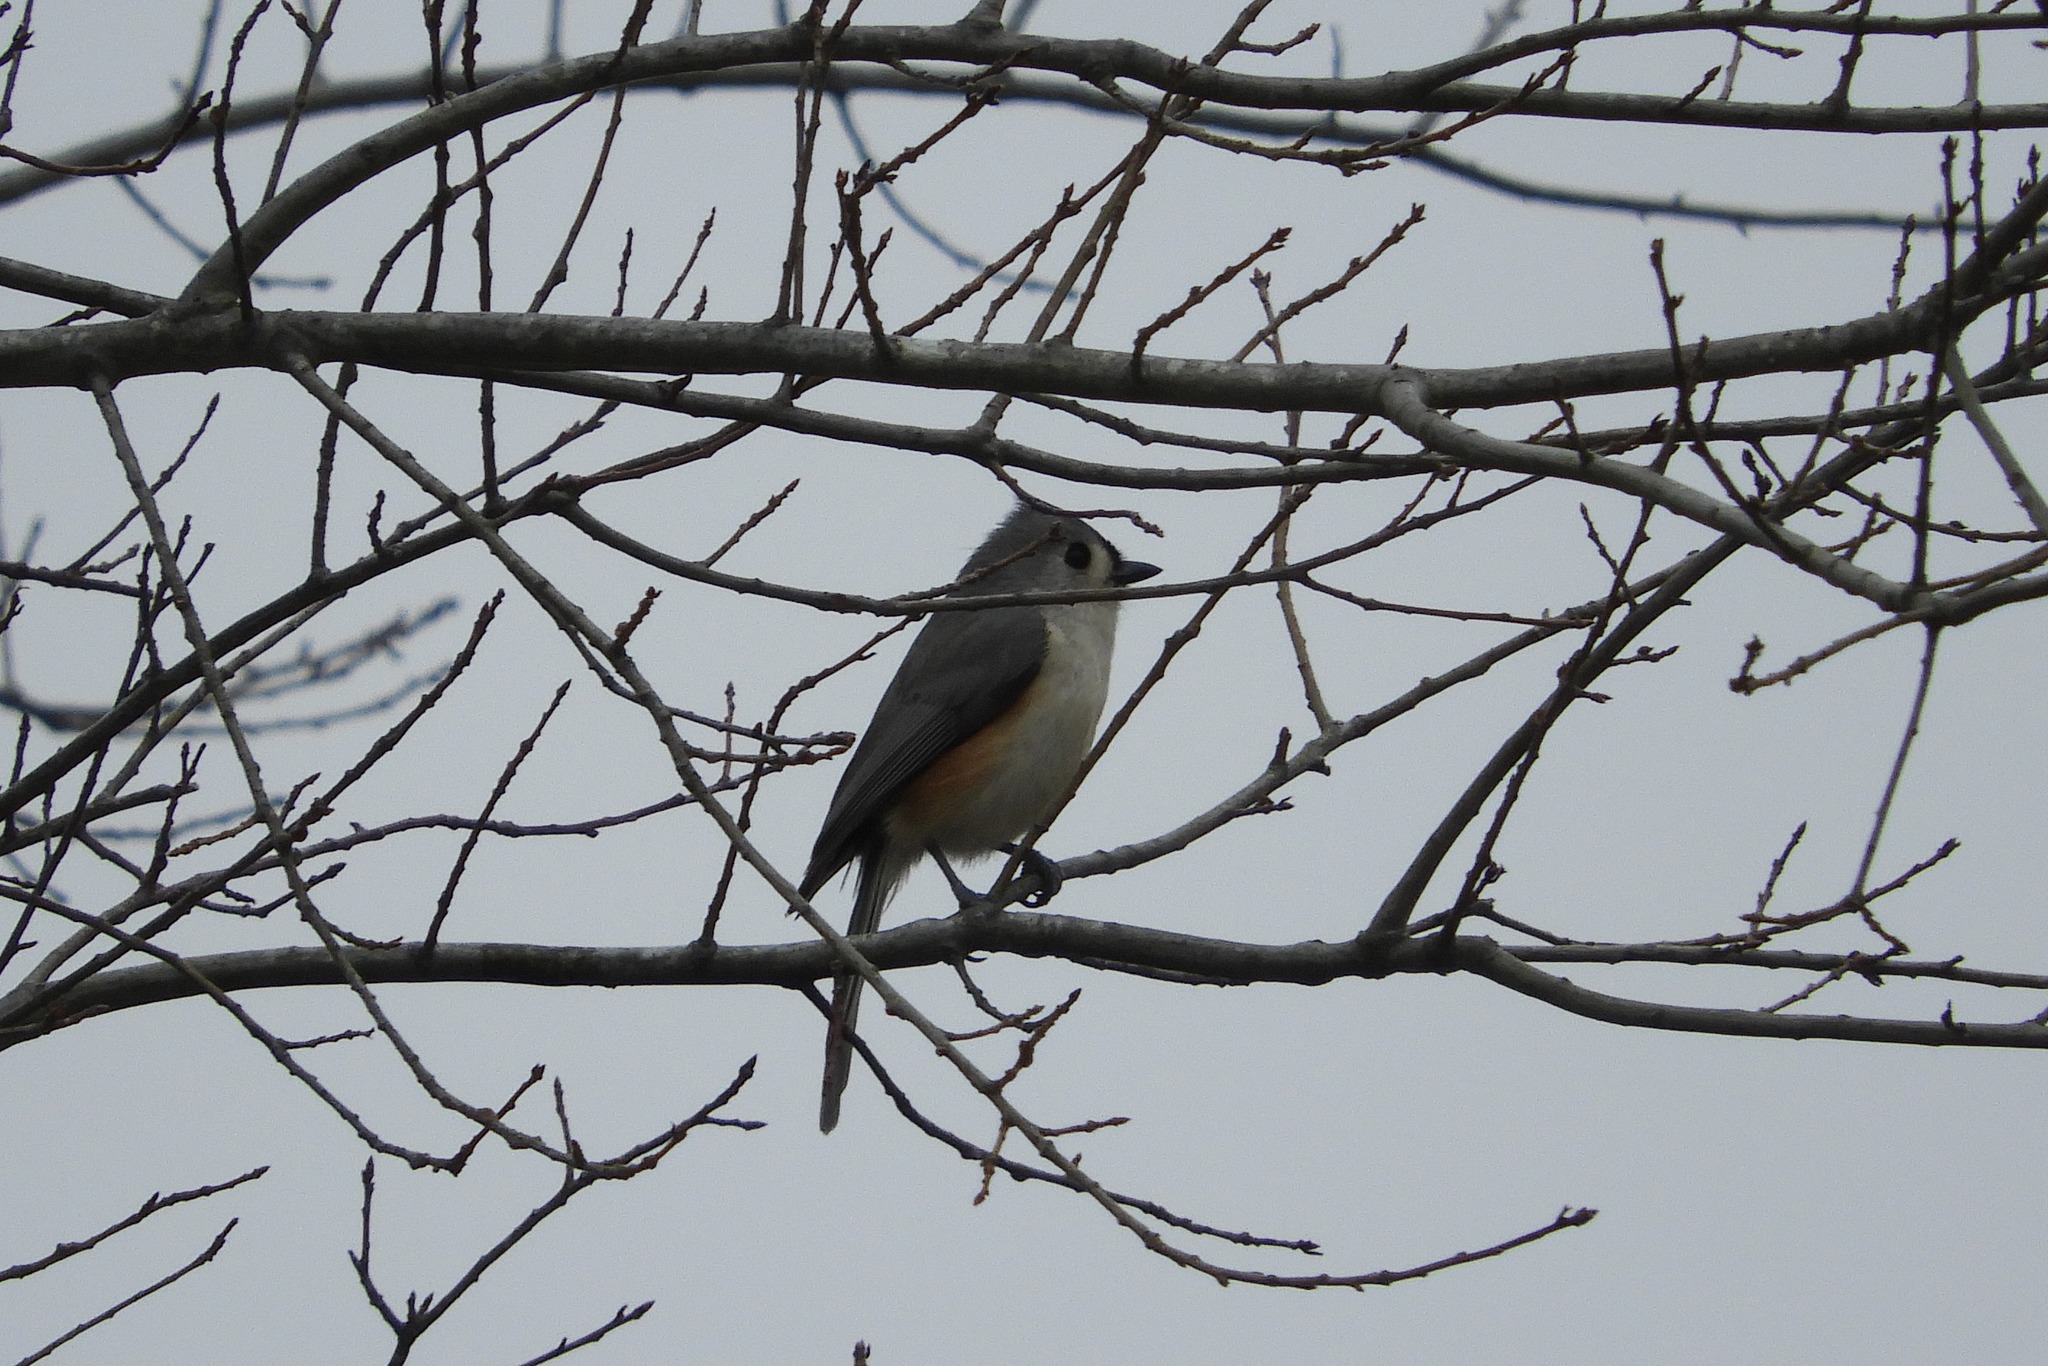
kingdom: Animalia
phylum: Chordata
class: Aves
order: Passeriformes
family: Paridae
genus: Baeolophus
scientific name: Baeolophus bicolor
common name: Tufted titmouse
